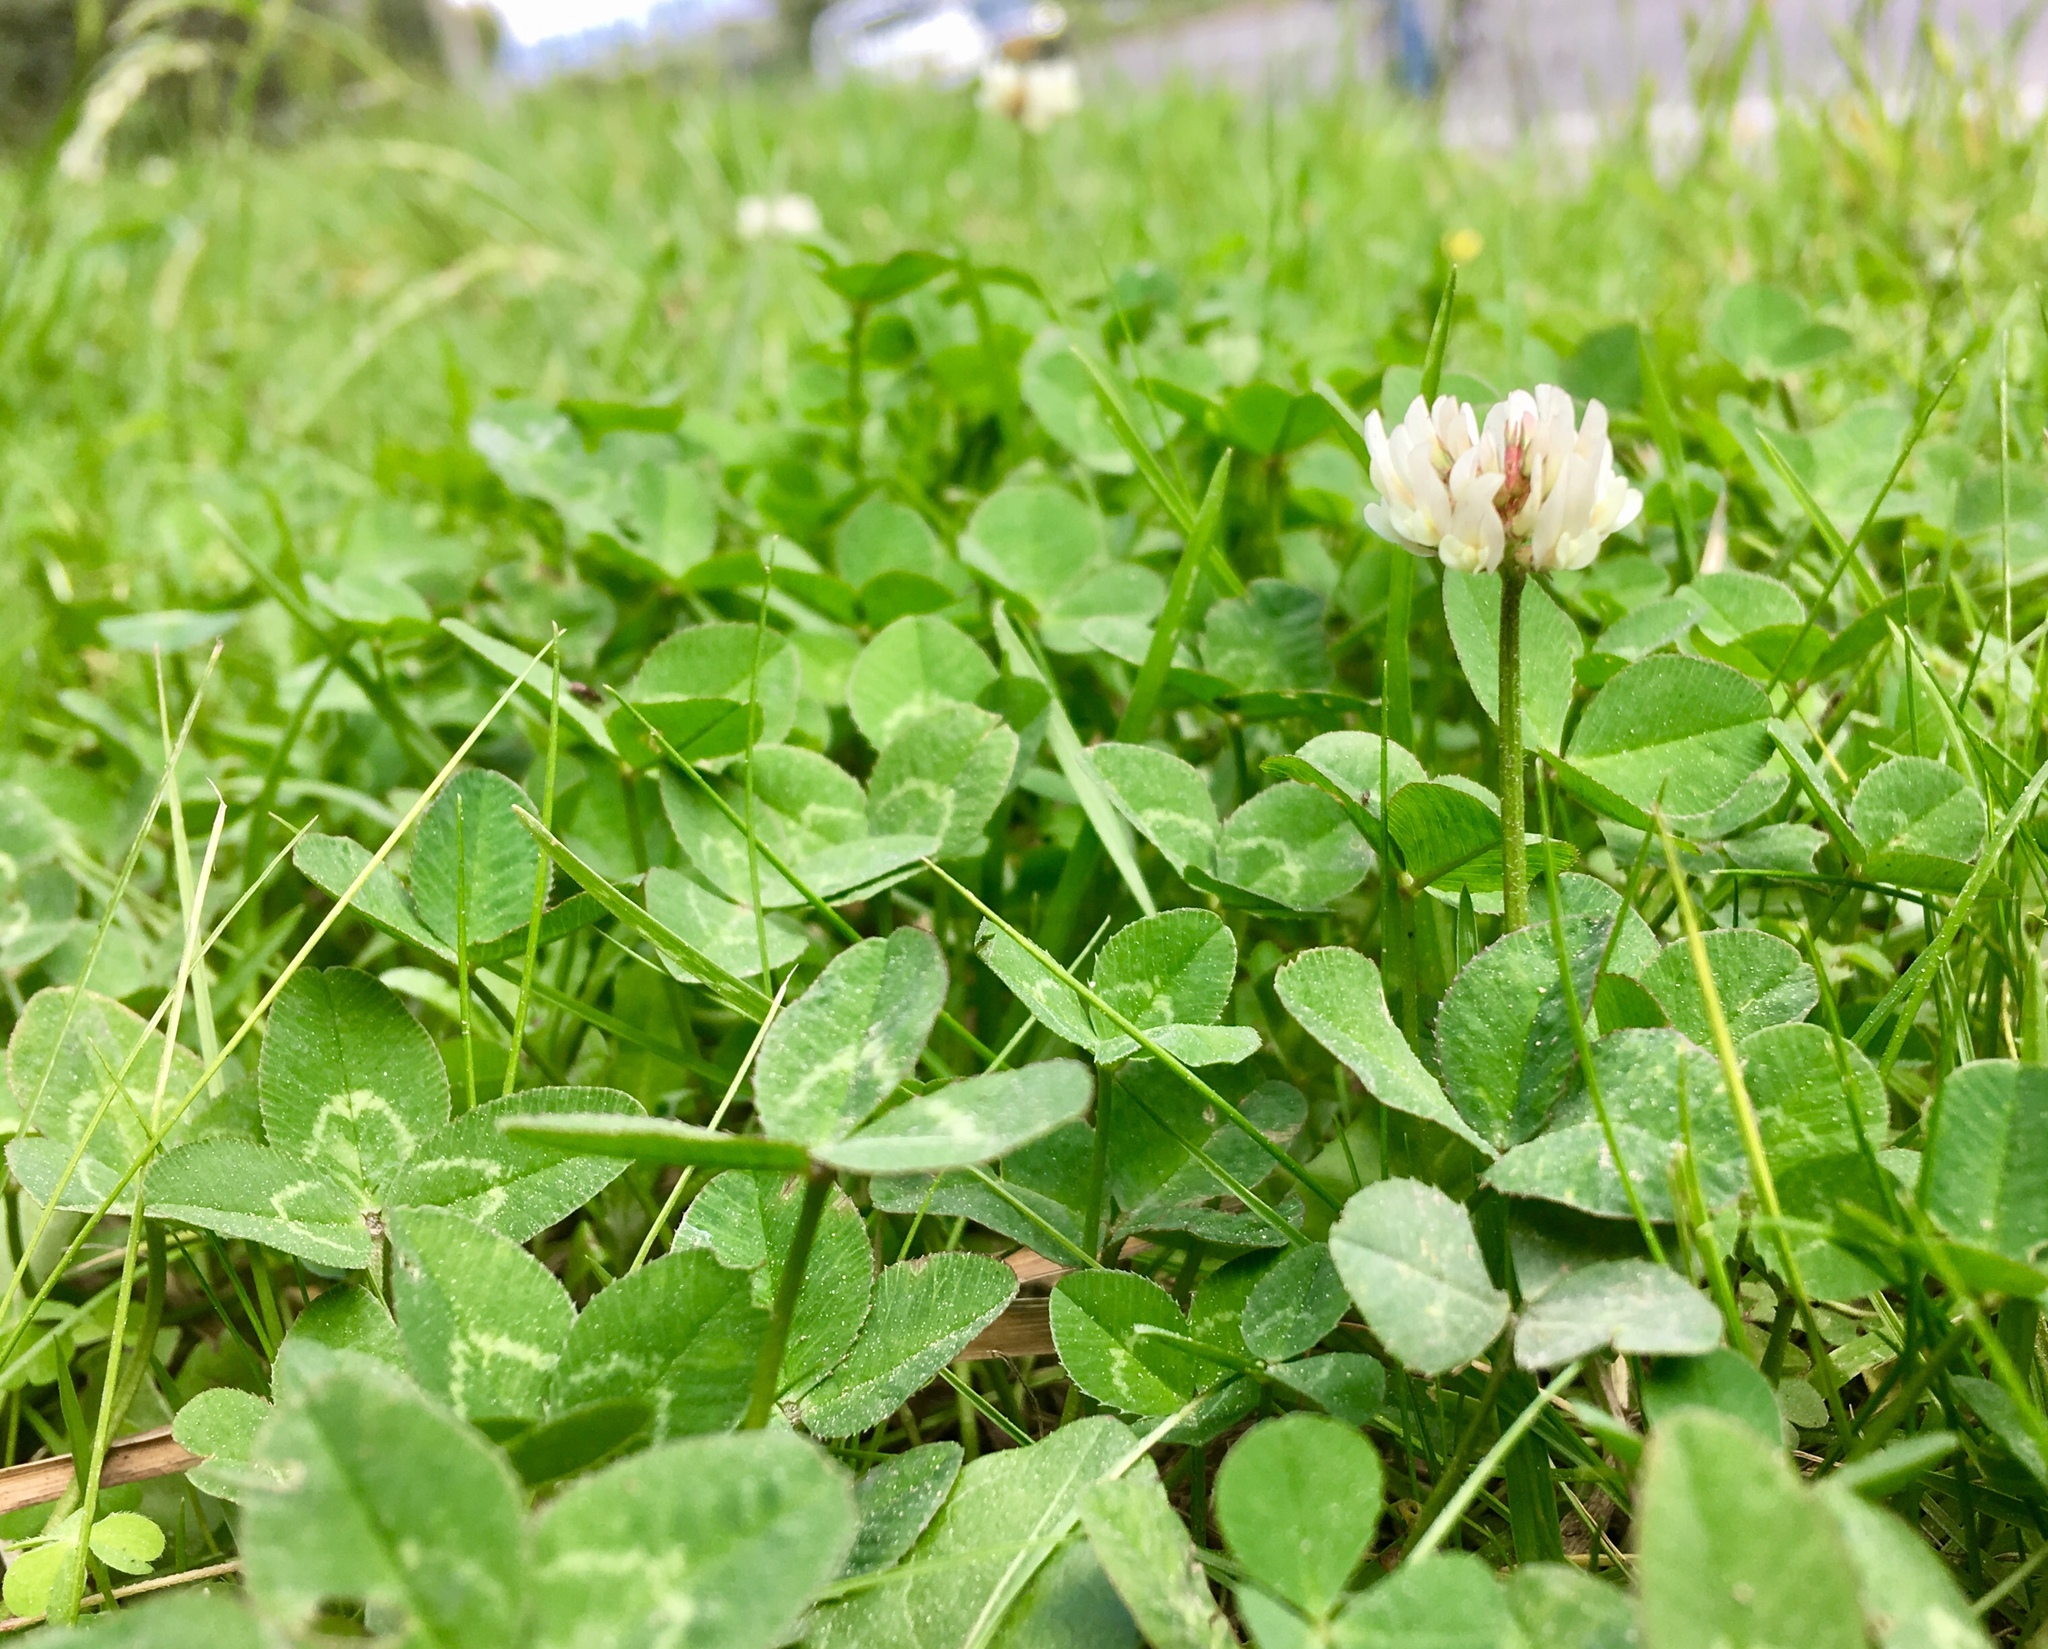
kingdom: Plantae
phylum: Tracheophyta
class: Magnoliopsida
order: Fabales
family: Fabaceae
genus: Trifolium
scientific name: Trifolium repens
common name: White clover
